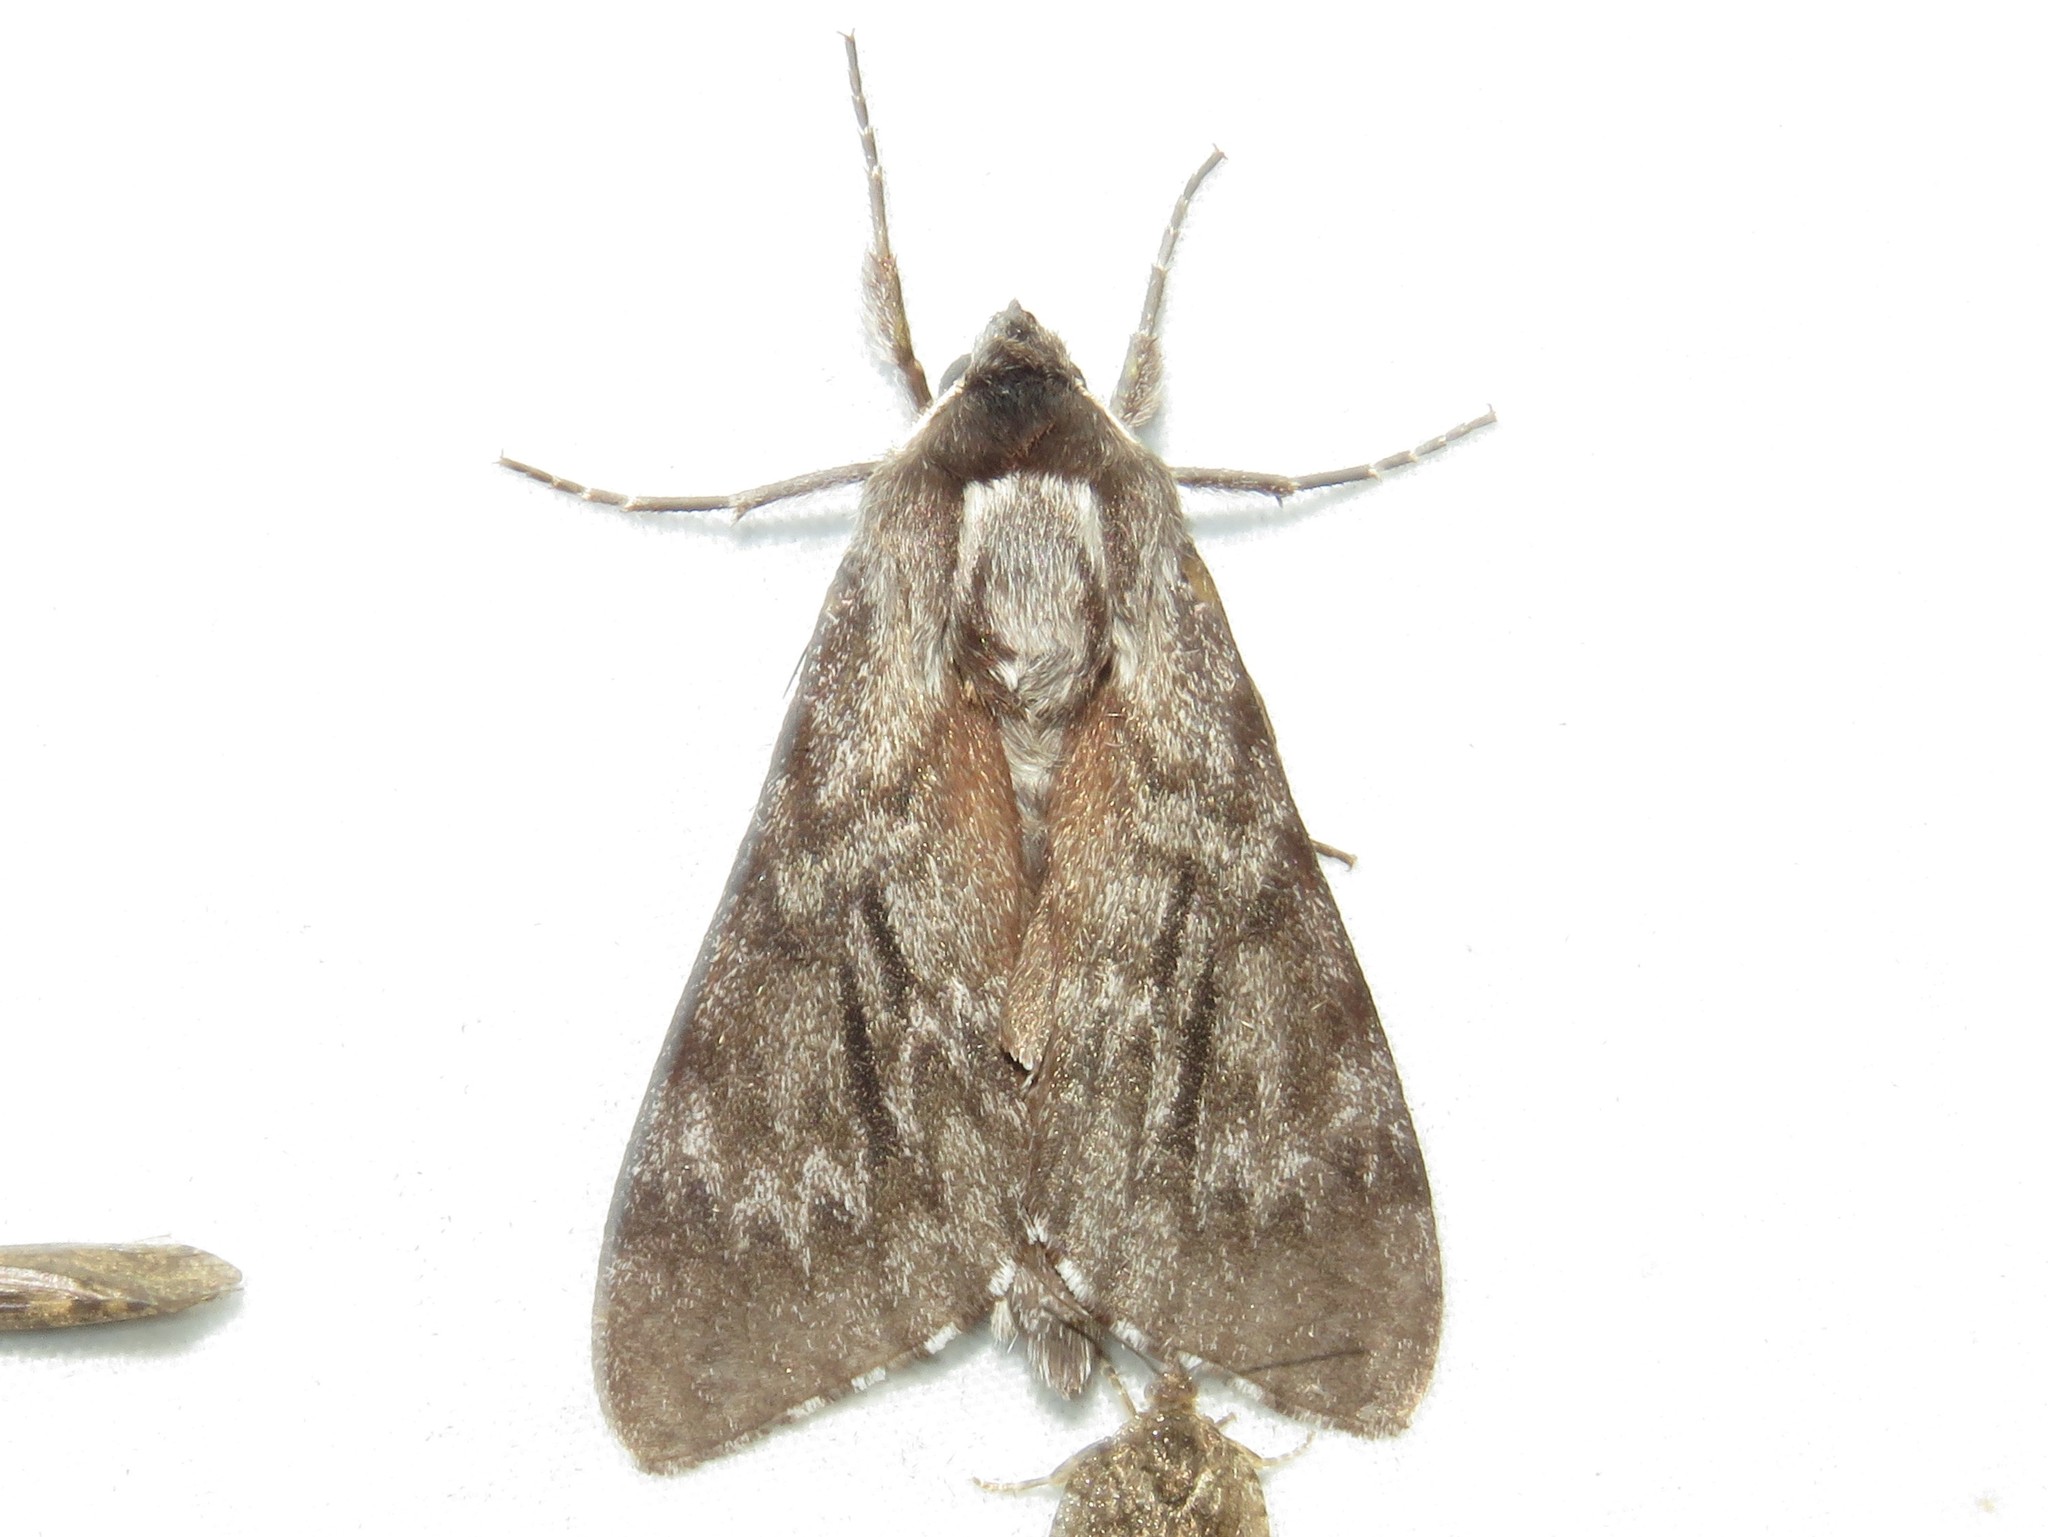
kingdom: Animalia
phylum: Arthropoda
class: Insecta
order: Lepidoptera
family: Sphingidae
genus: Lapara
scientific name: Lapara bombycoides
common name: Northern pine sphinx
